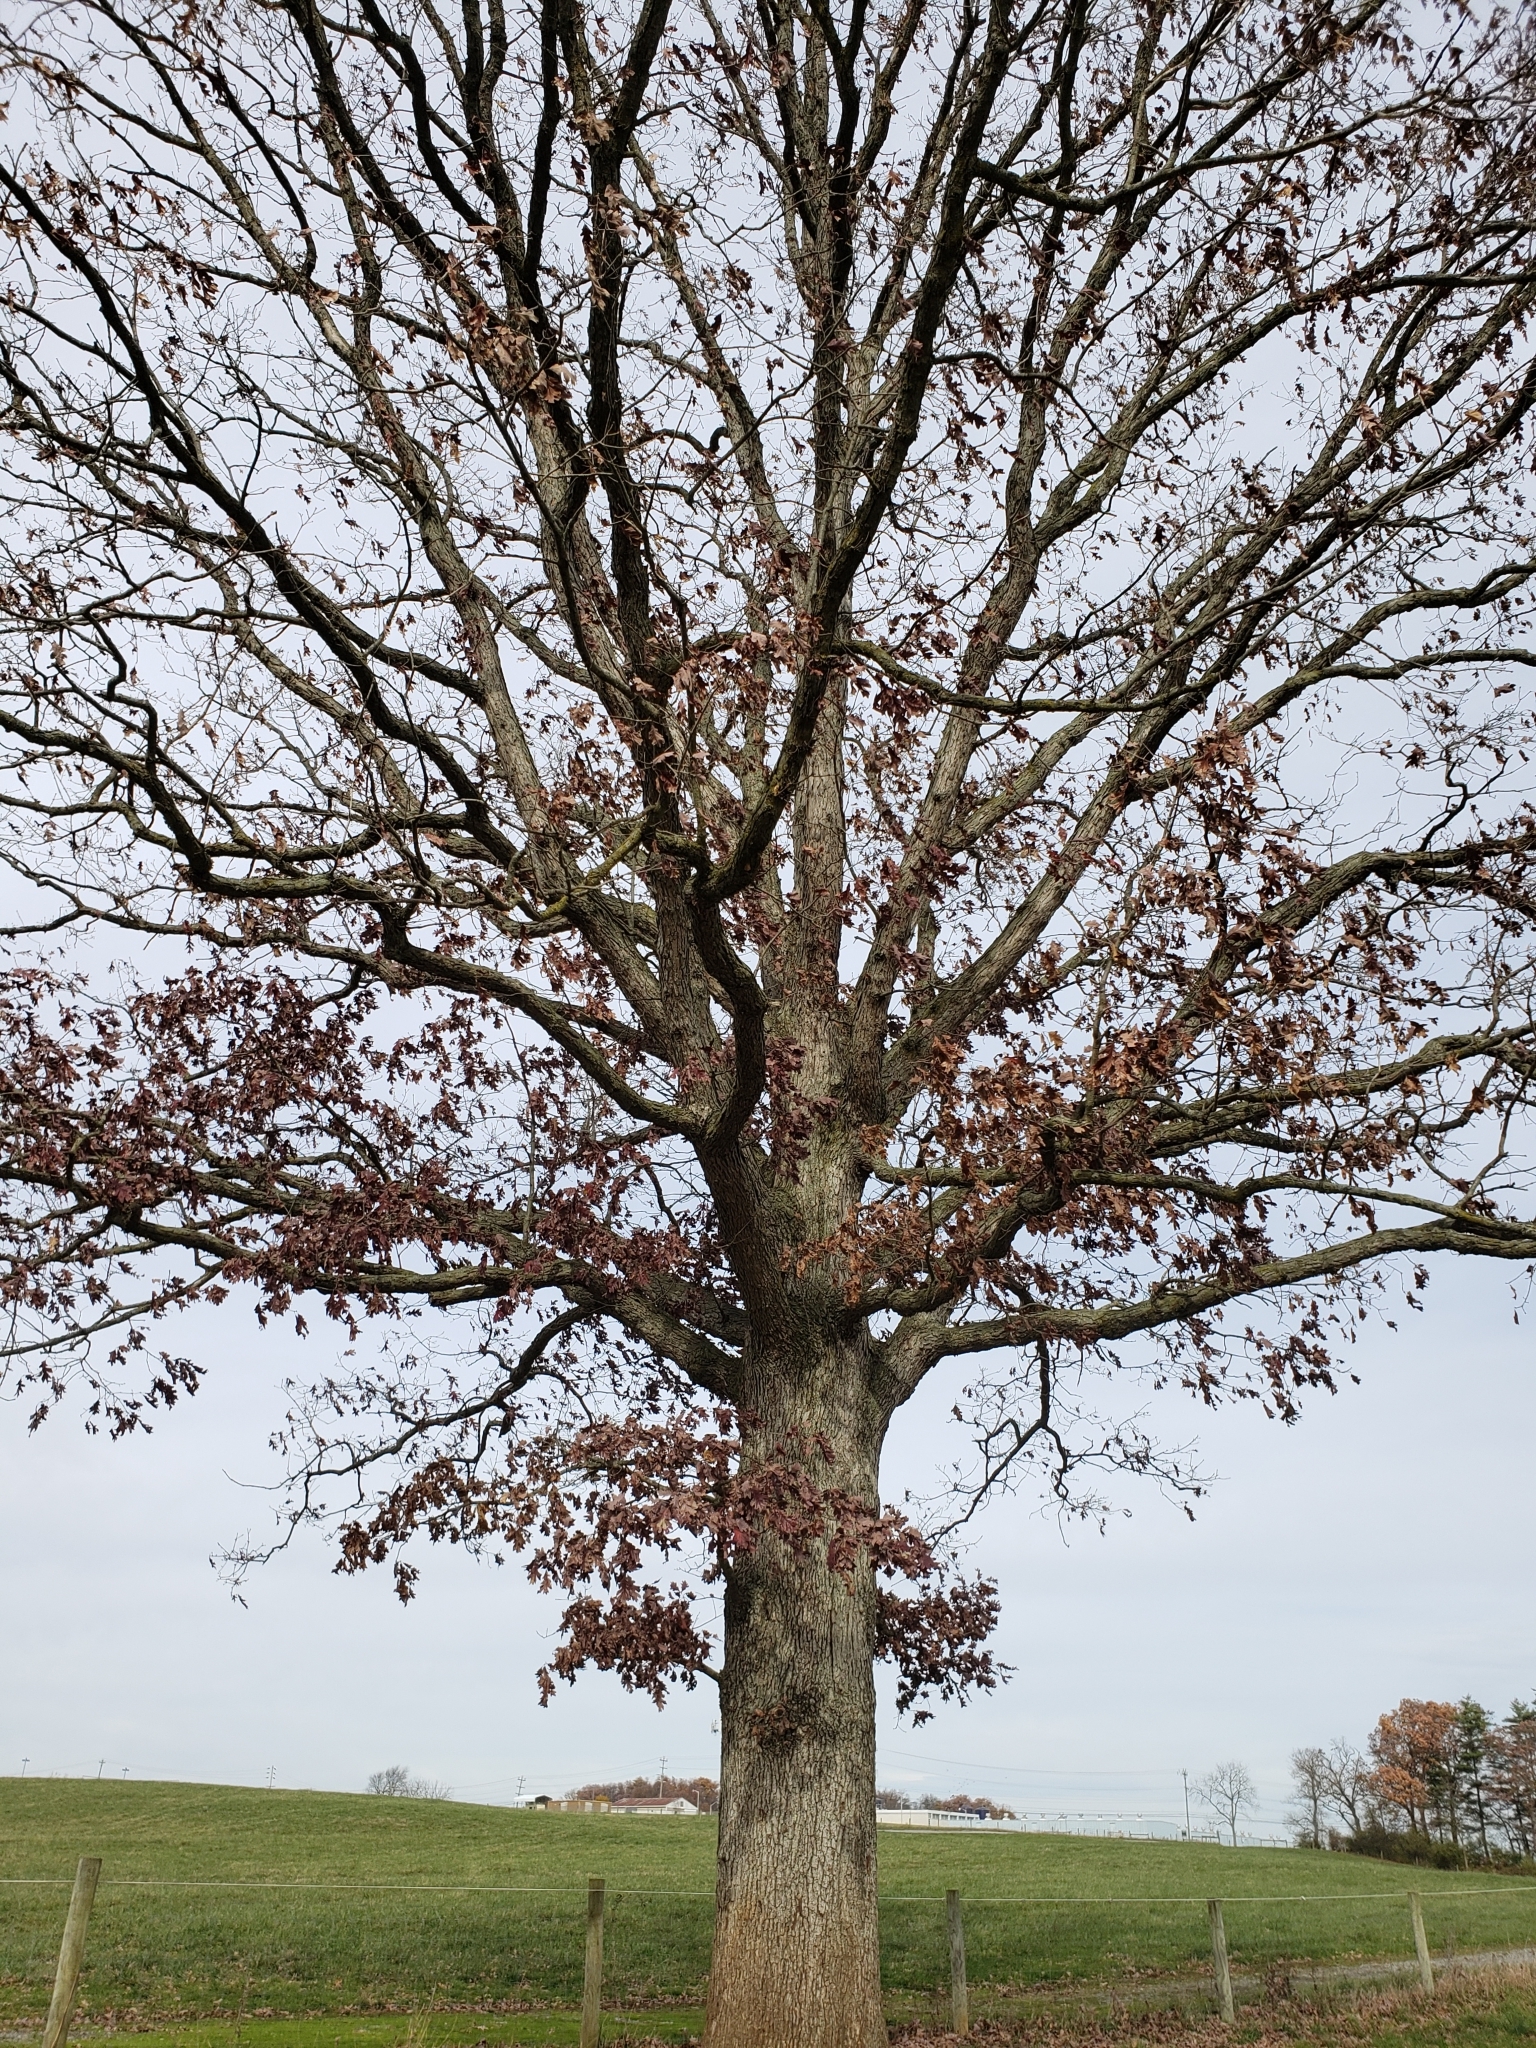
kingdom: Animalia
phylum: Arthropoda
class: Insecta
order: Hymenoptera
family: Cynipidae
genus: Disholcaspis
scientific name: Disholcaspis quercusglobulus
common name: Round bullet gall wasp
